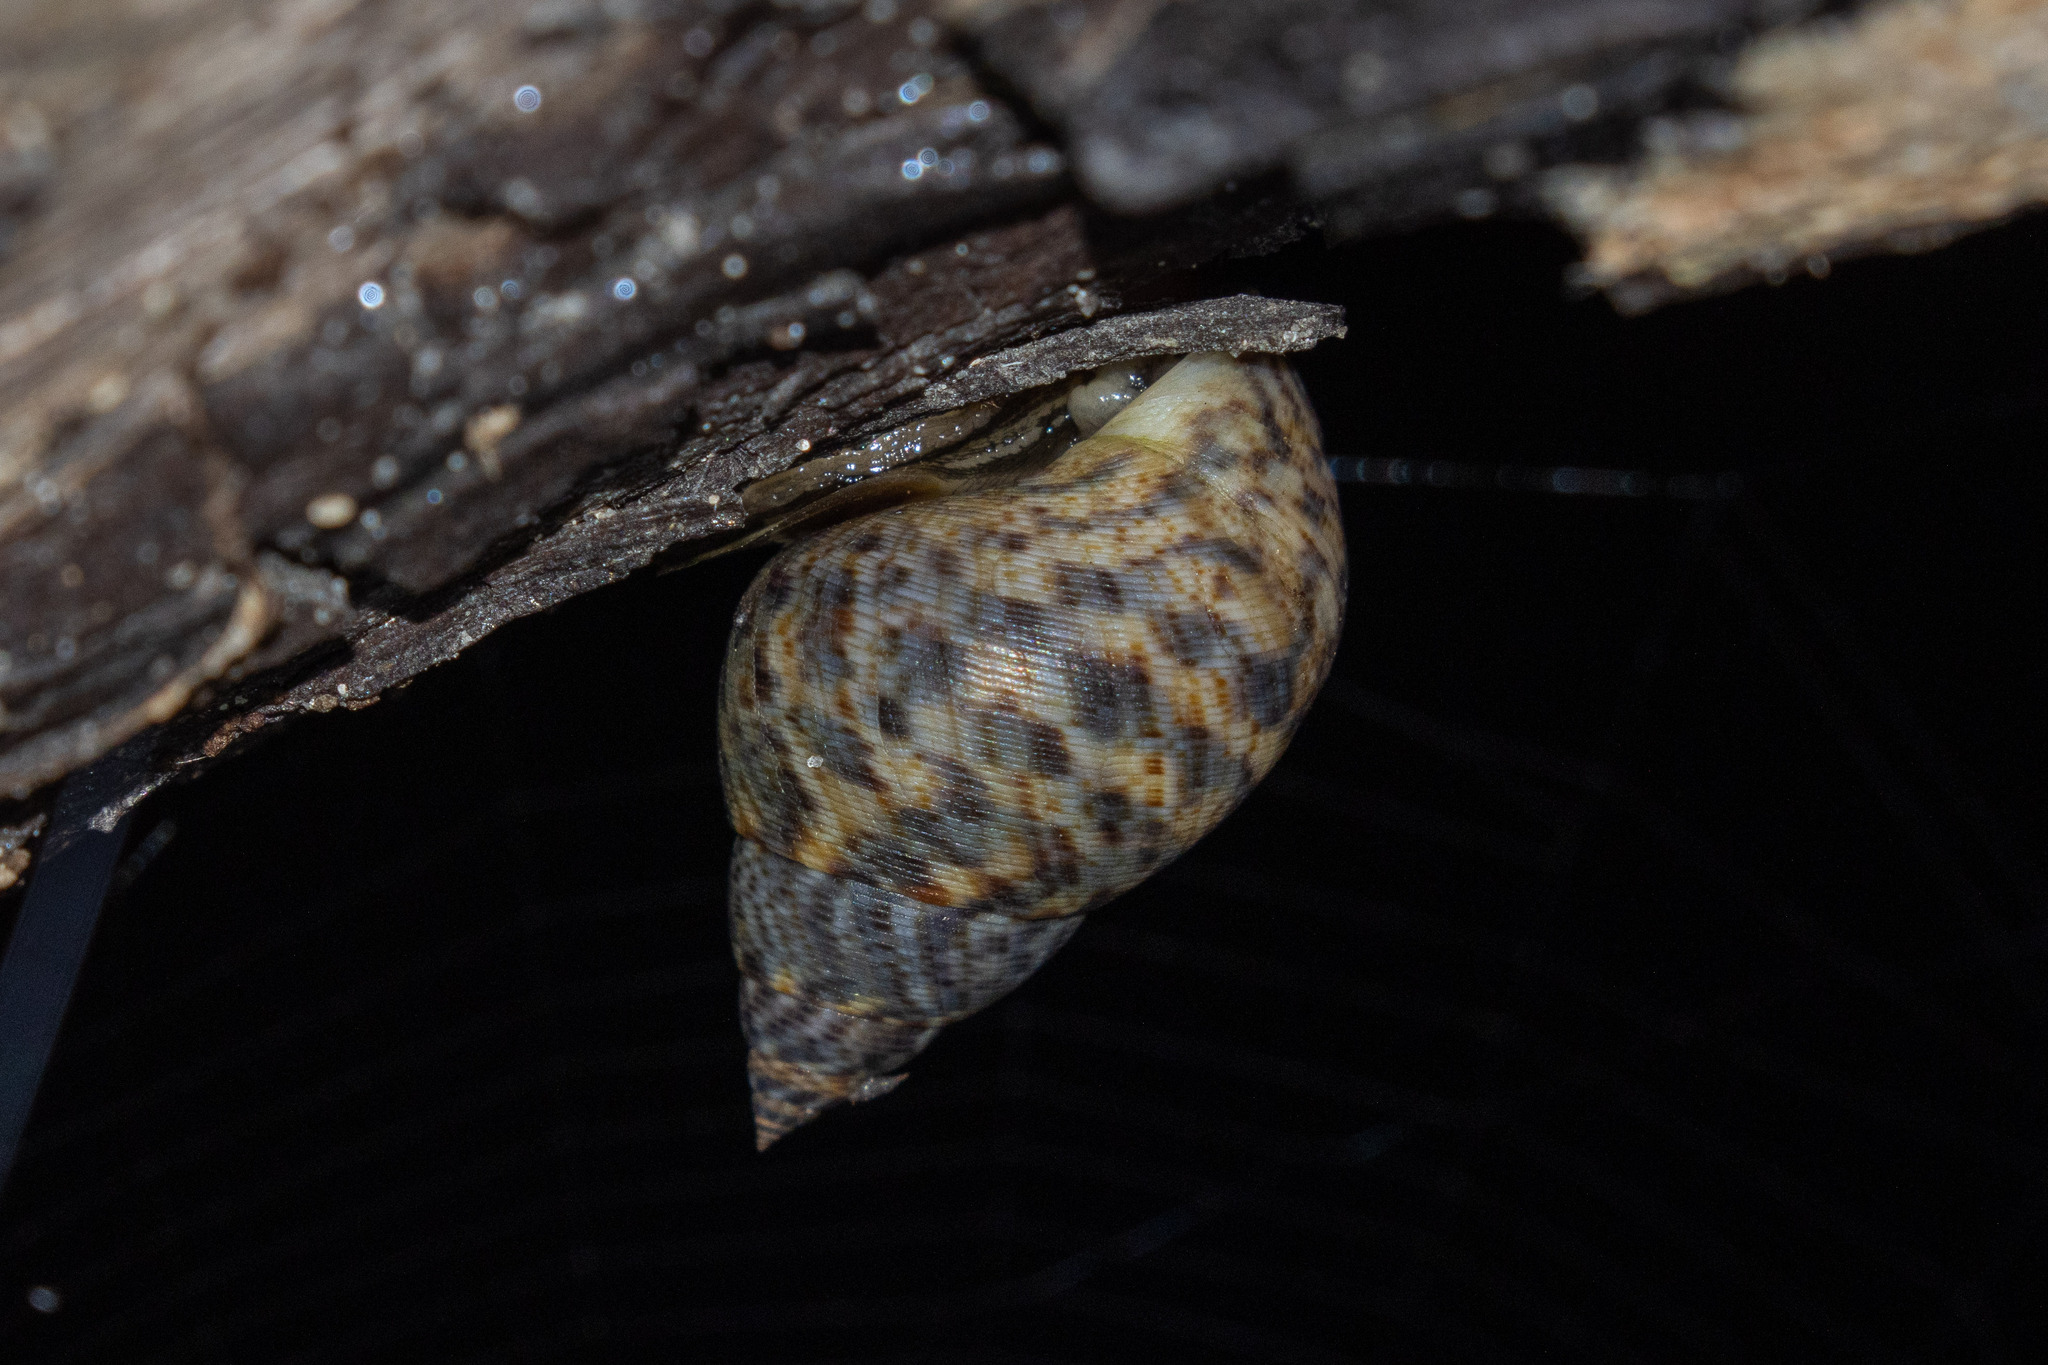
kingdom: Animalia
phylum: Mollusca
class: Gastropoda
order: Littorinimorpha
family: Littorinidae
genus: Littoraria
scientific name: Littoraria angulifera
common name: Mangrove periwinkle
